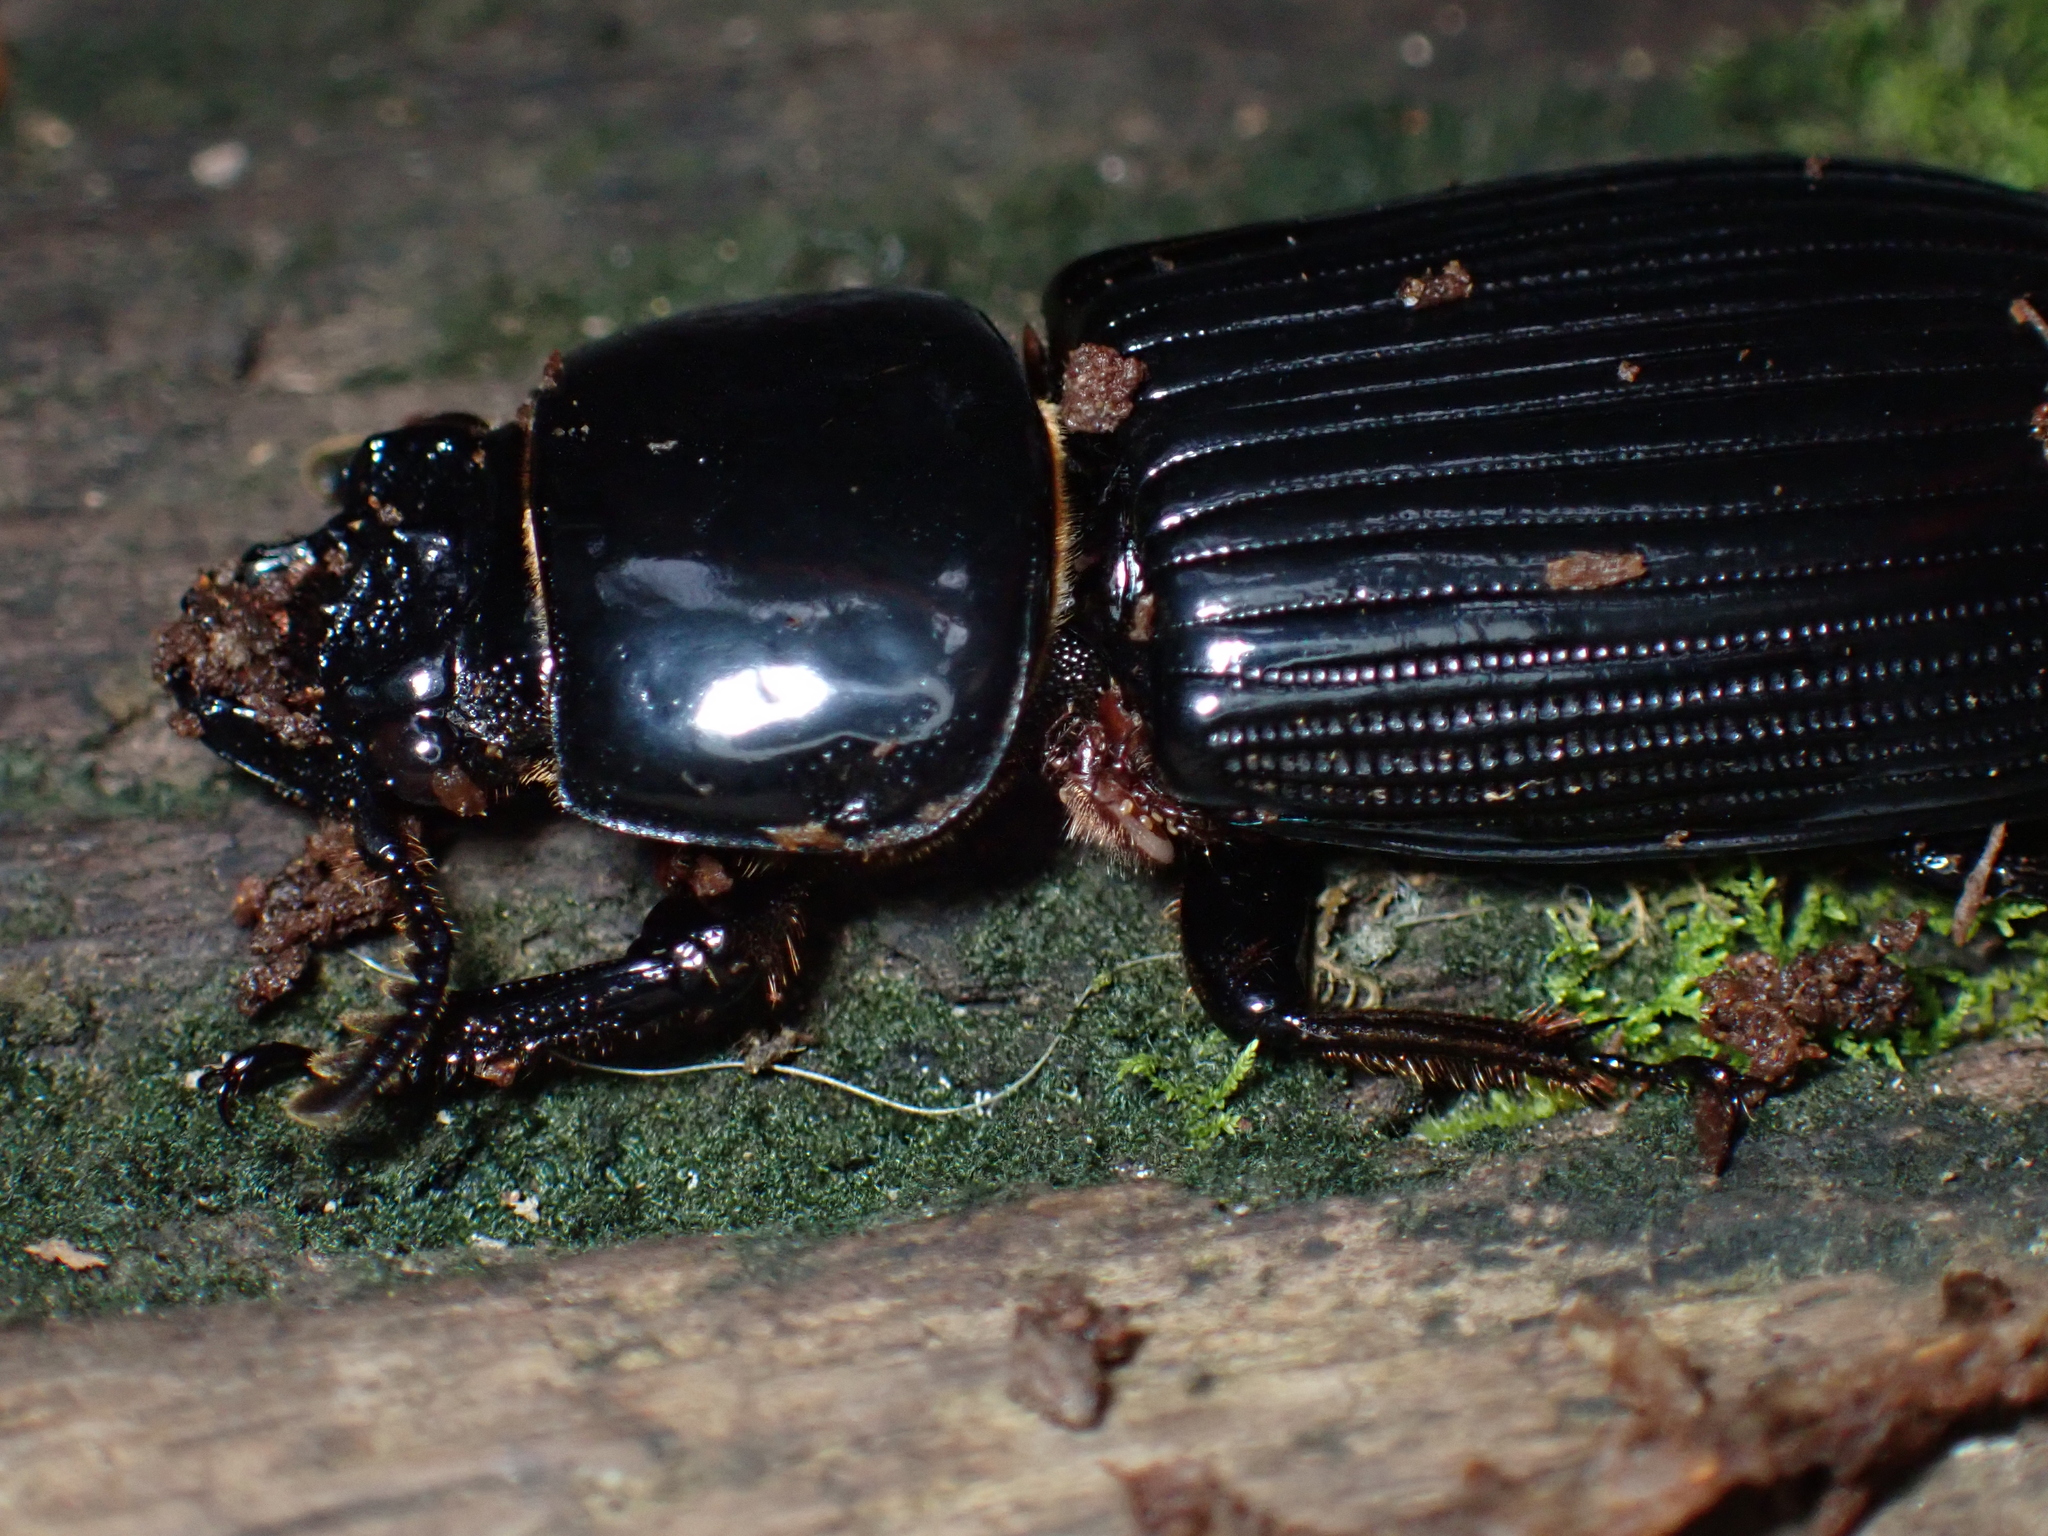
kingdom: Animalia
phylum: Arthropoda
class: Insecta
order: Coleoptera
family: Passalidae
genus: Pharochilus
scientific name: Pharochilus dilatatus
